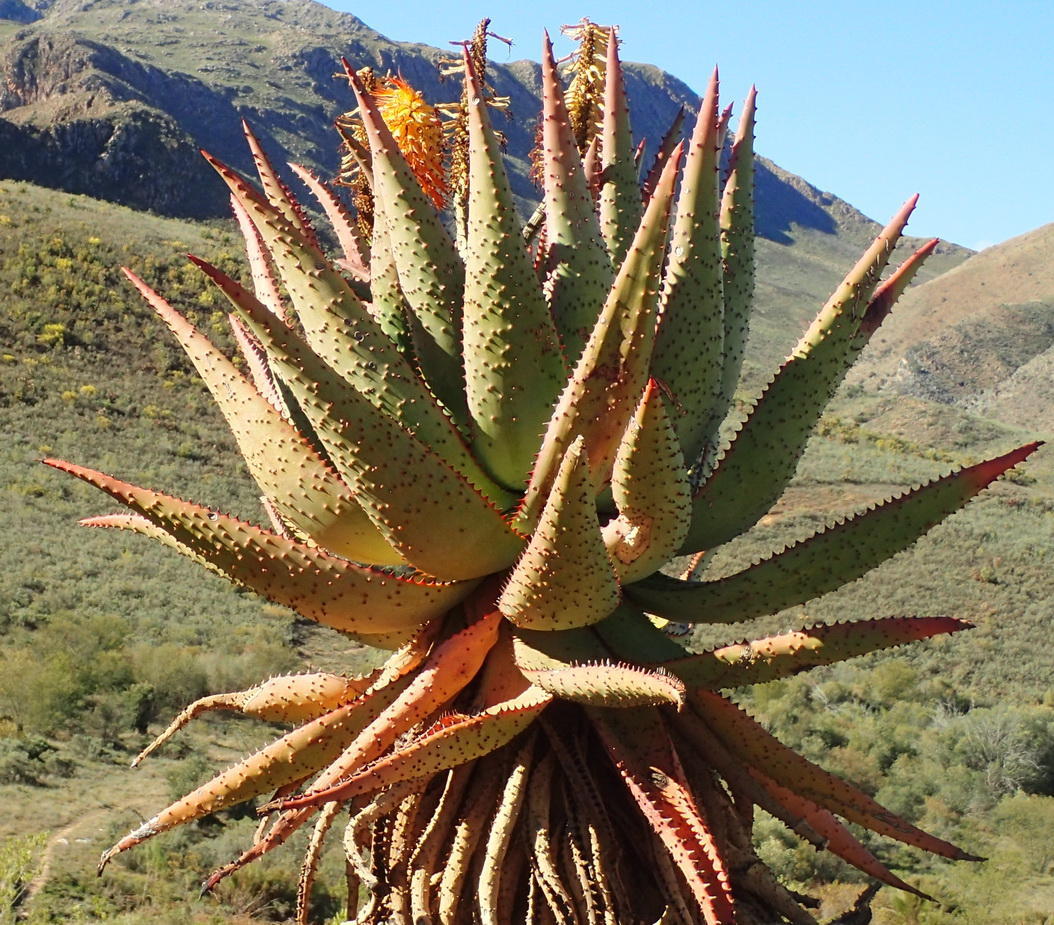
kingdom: Plantae
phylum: Tracheophyta
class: Liliopsida
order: Asparagales
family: Asphodelaceae
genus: Aloe
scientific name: Aloe ferox
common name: Bitter aloe
